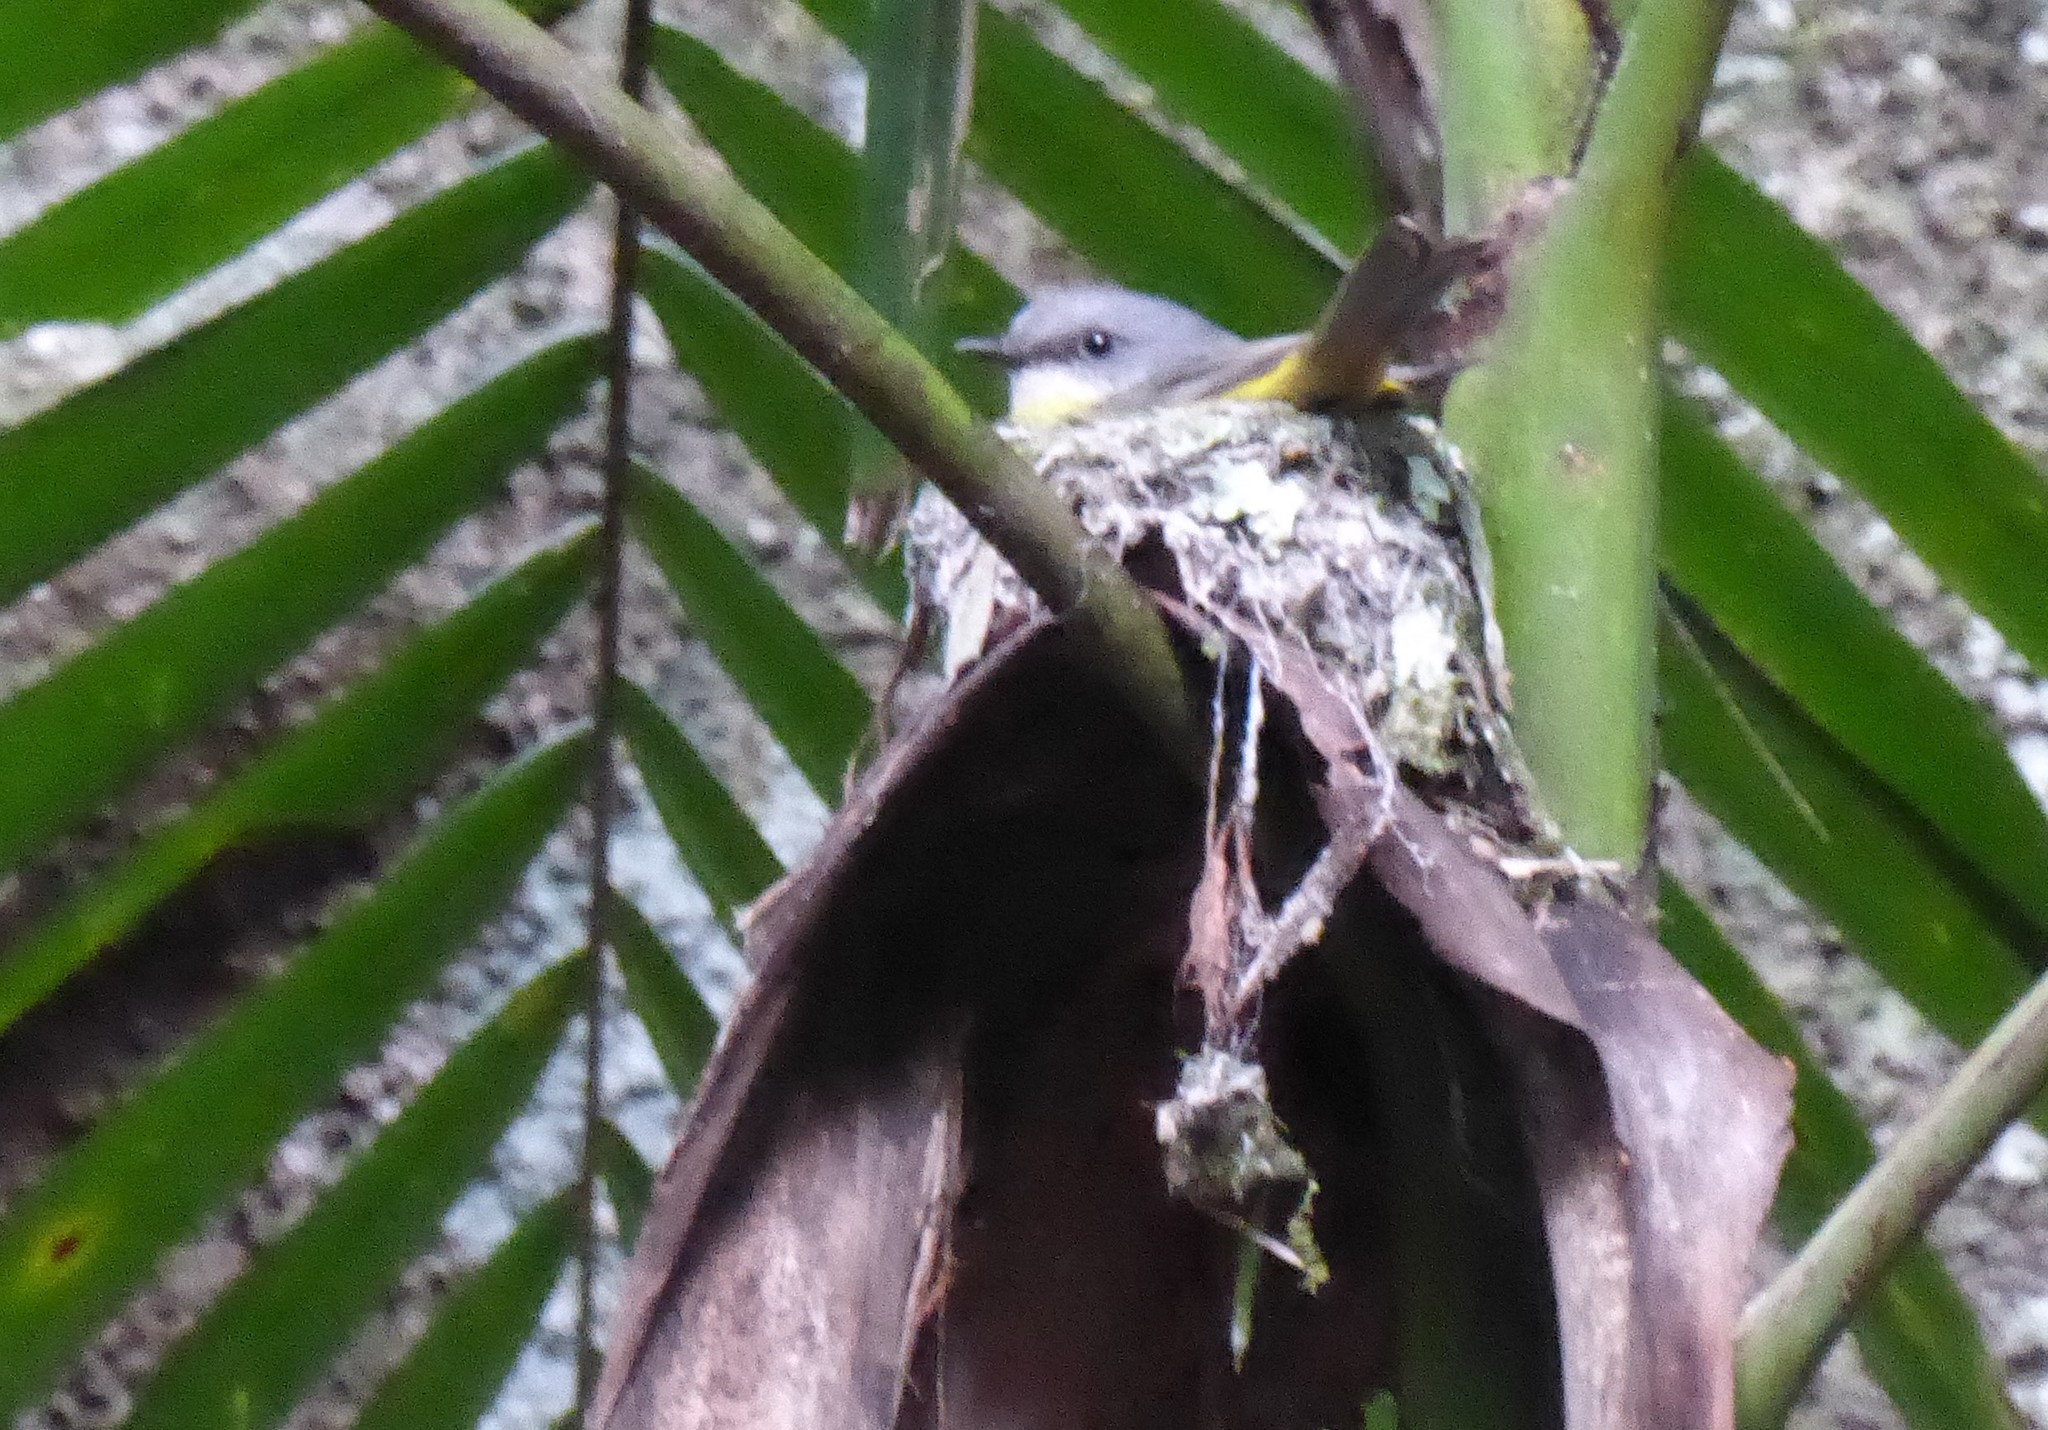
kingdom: Animalia
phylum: Chordata
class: Aves
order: Passeriformes
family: Petroicidae
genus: Eopsaltria
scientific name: Eopsaltria australis
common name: Eastern yellow robin
